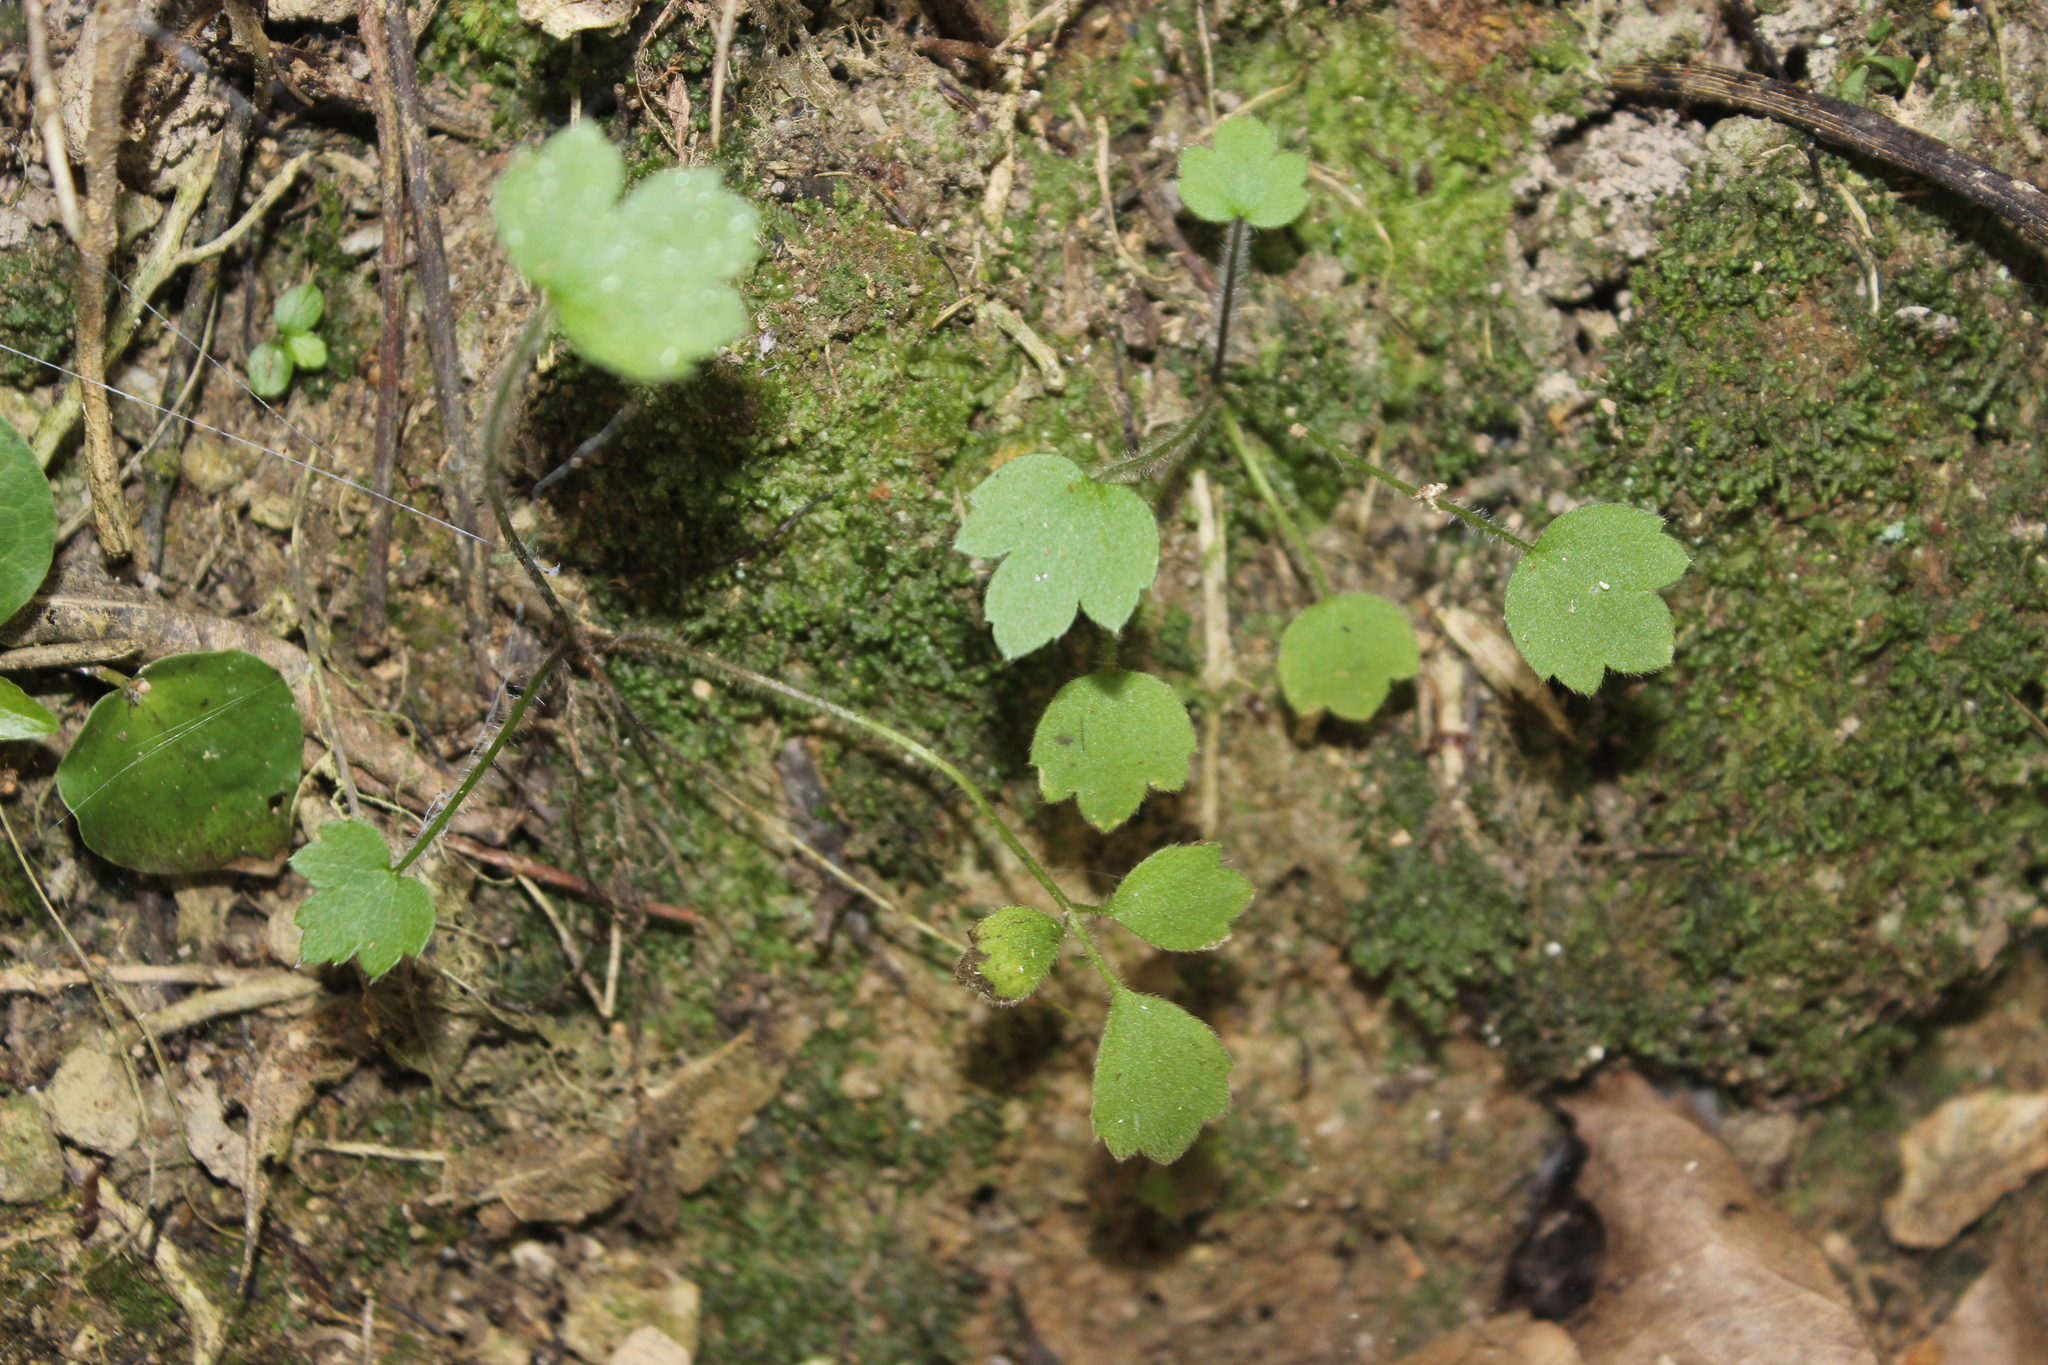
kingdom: Plantae
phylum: Tracheophyta
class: Magnoliopsida
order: Ranunculales
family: Ranunculaceae
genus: Ranunculus
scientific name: Ranunculus reflexus
